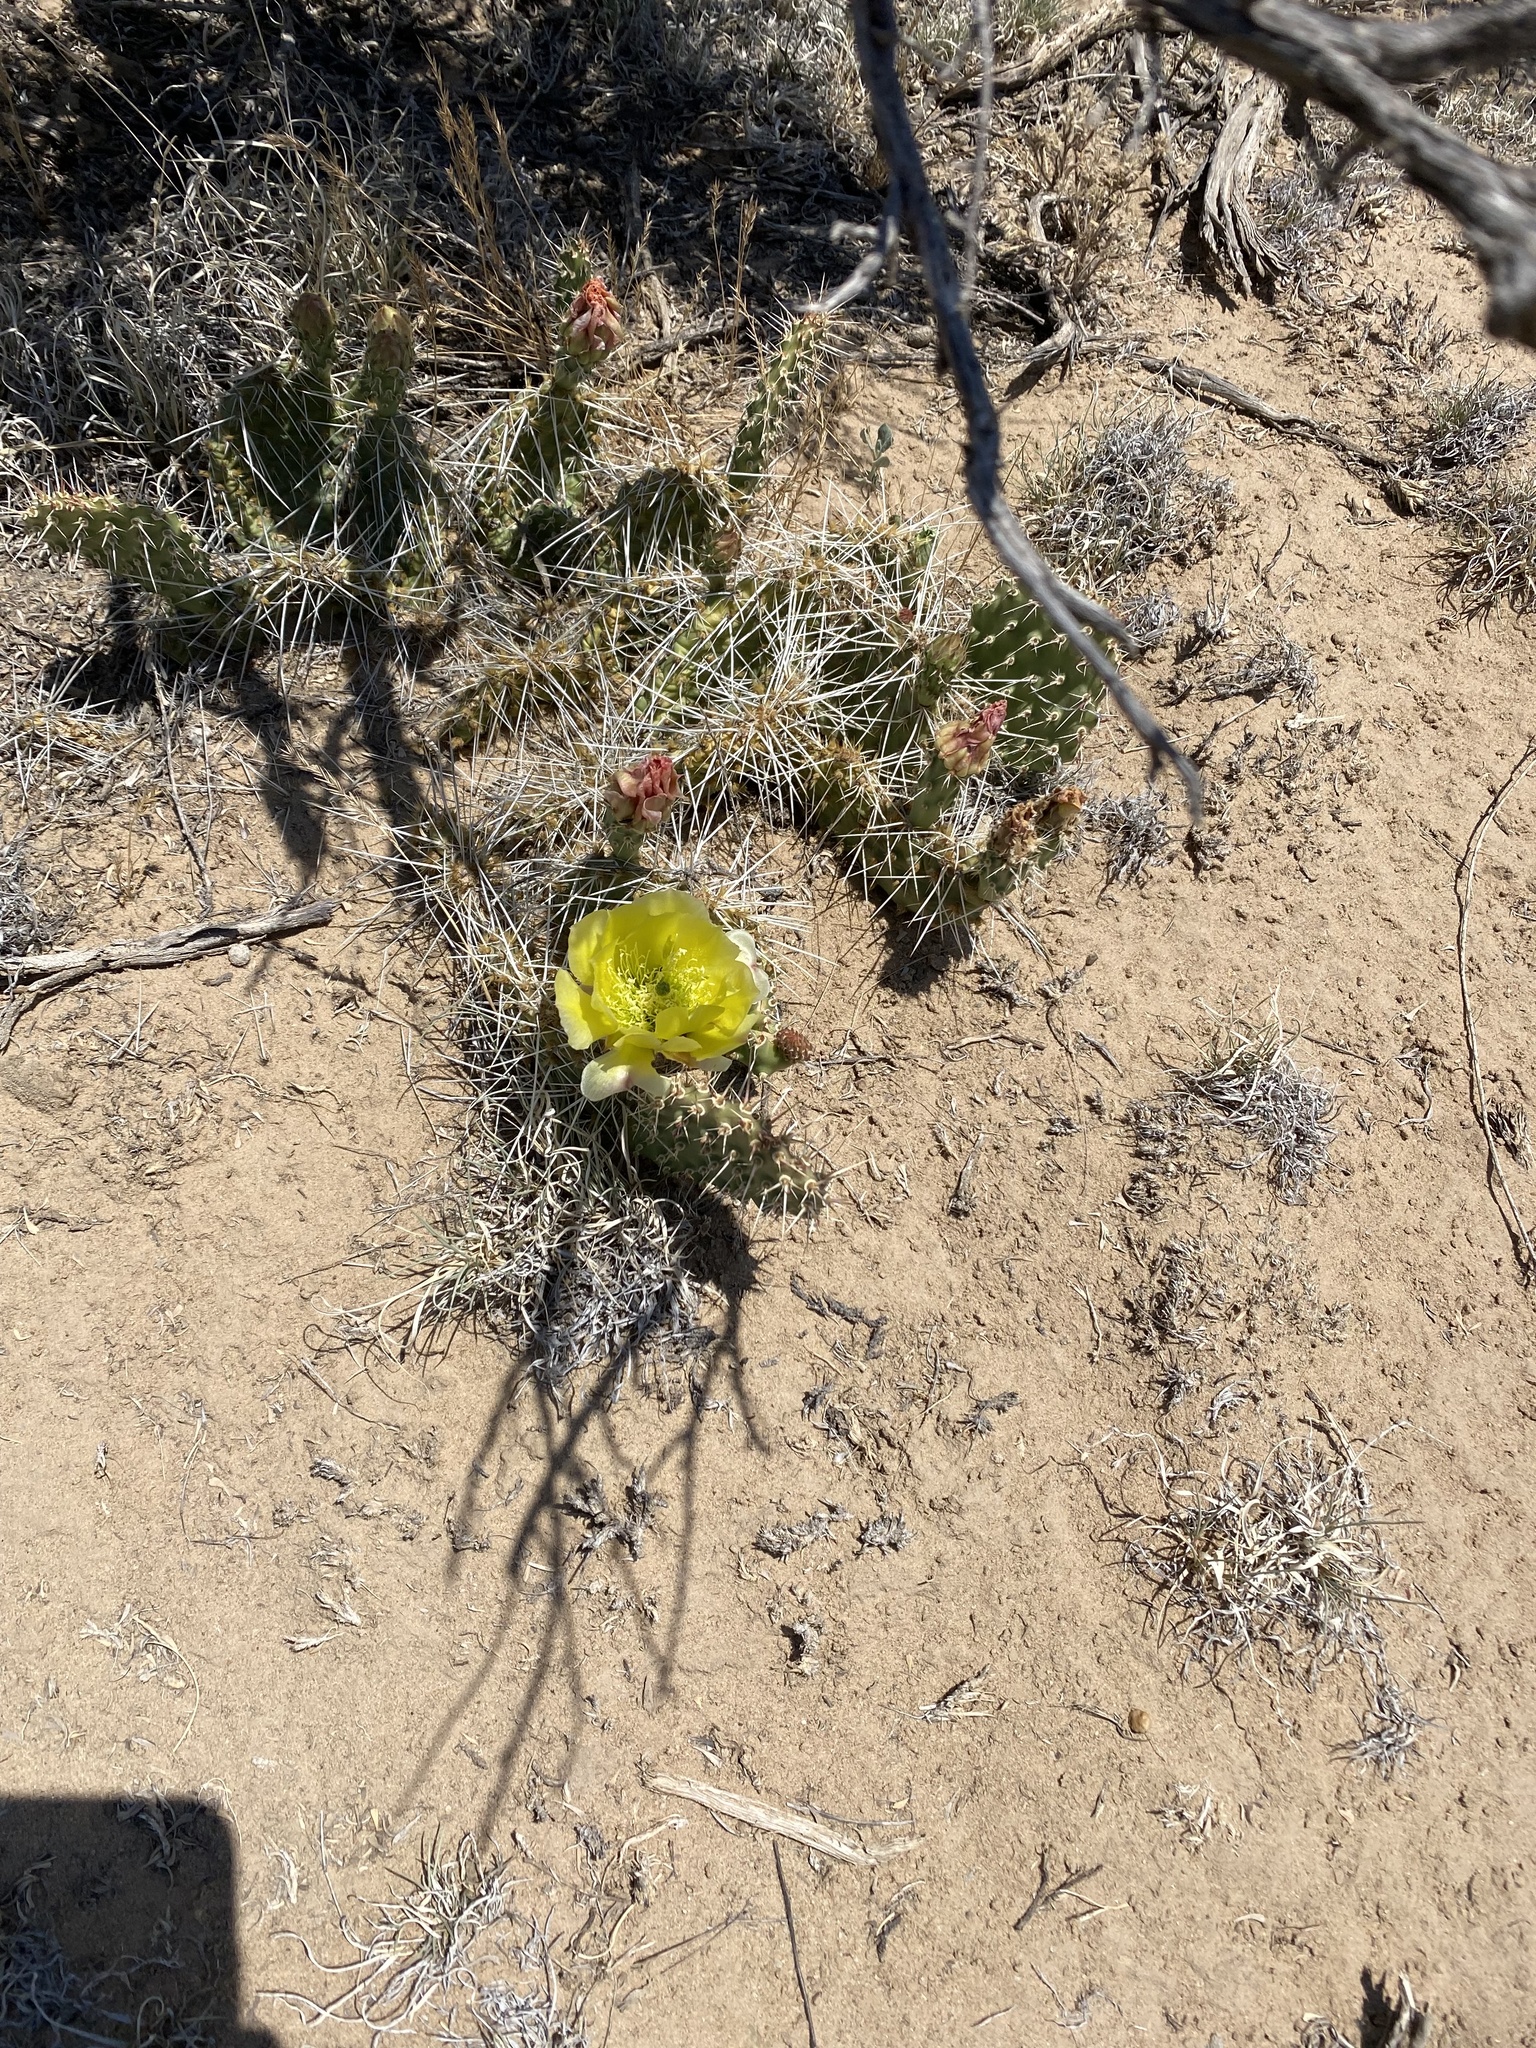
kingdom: Plantae
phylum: Tracheophyta
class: Magnoliopsida
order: Caryophyllales
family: Cactaceae
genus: Opuntia
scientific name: Opuntia polyacantha
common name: Plains prickly-pear
